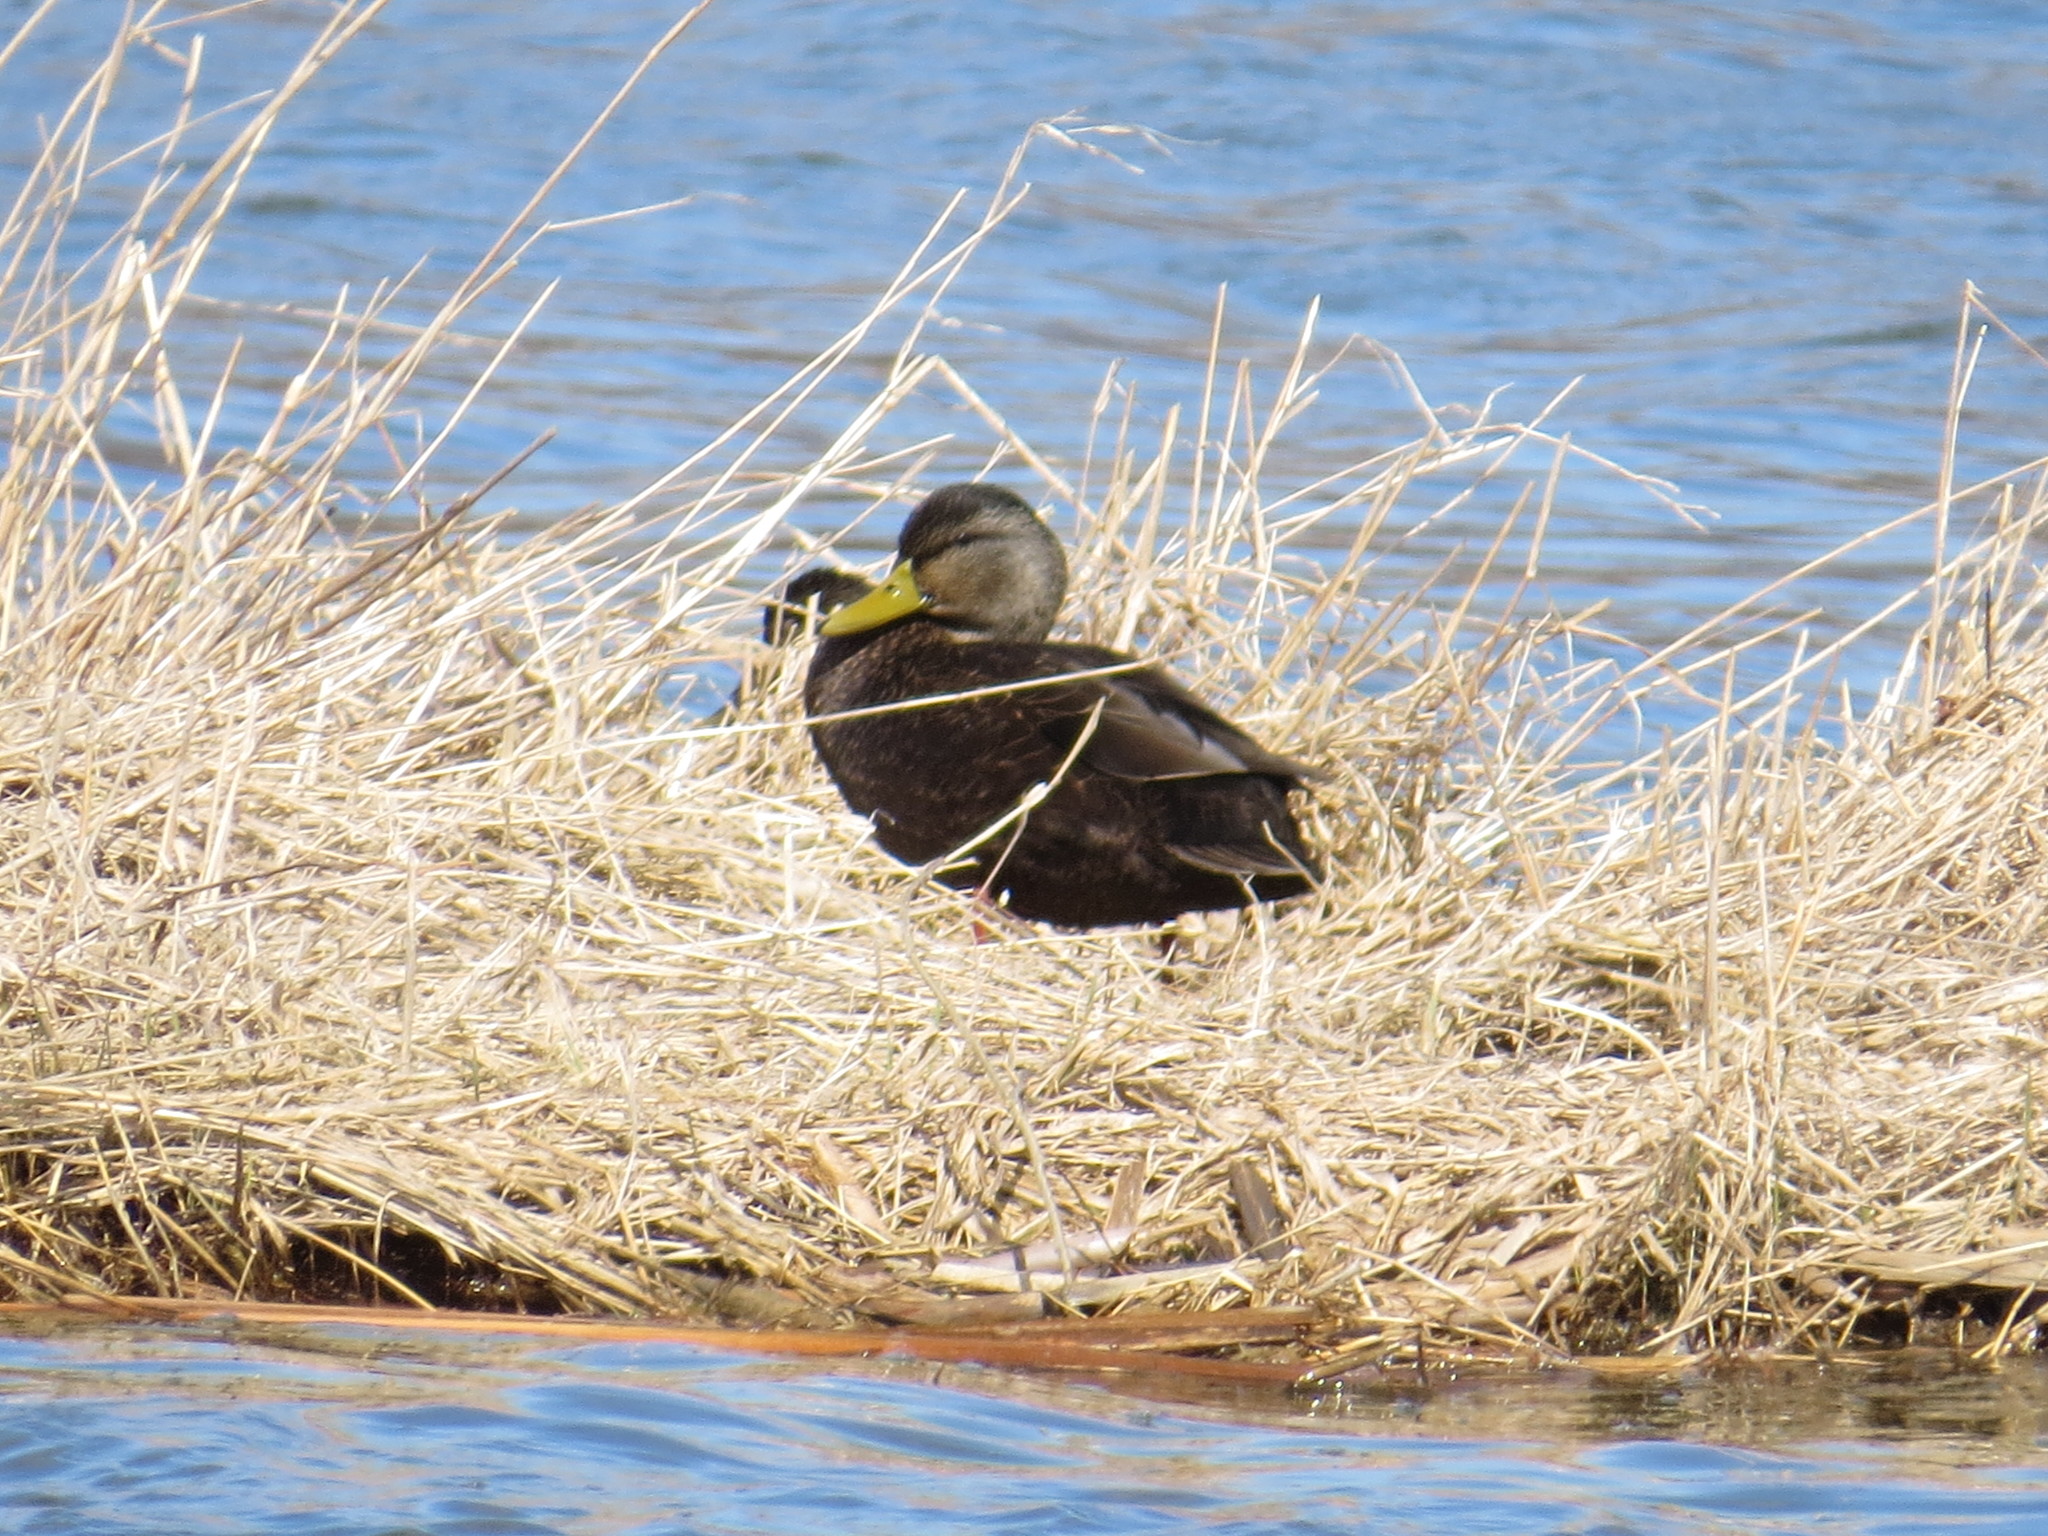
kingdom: Animalia
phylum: Chordata
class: Aves
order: Anseriformes
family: Anatidae
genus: Anas
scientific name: Anas rubripes
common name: American black duck
